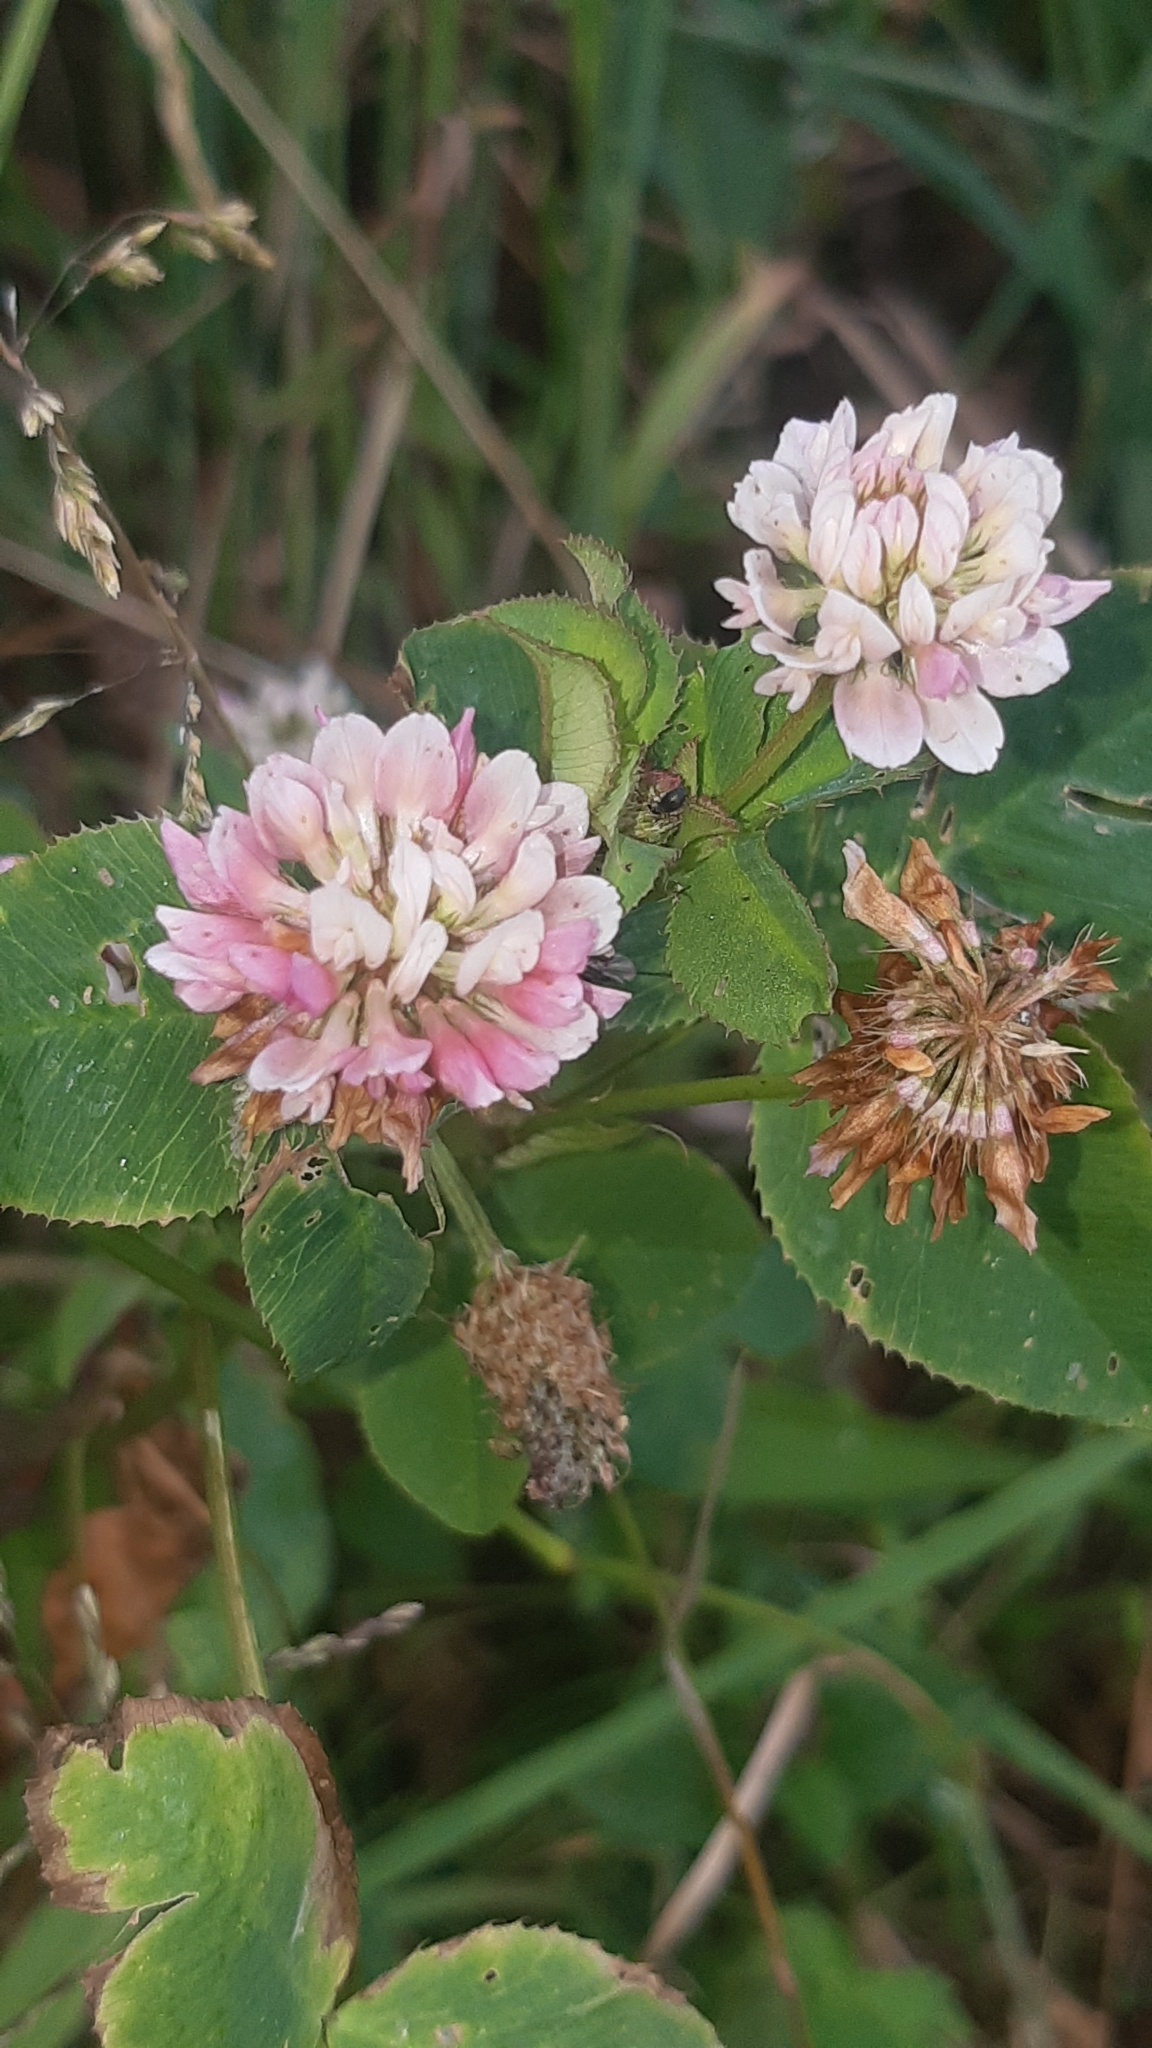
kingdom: Plantae
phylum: Tracheophyta
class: Magnoliopsida
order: Fabales
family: Fabaceae
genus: Trifolium
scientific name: Trifolium hybridum
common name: Alsike clover
